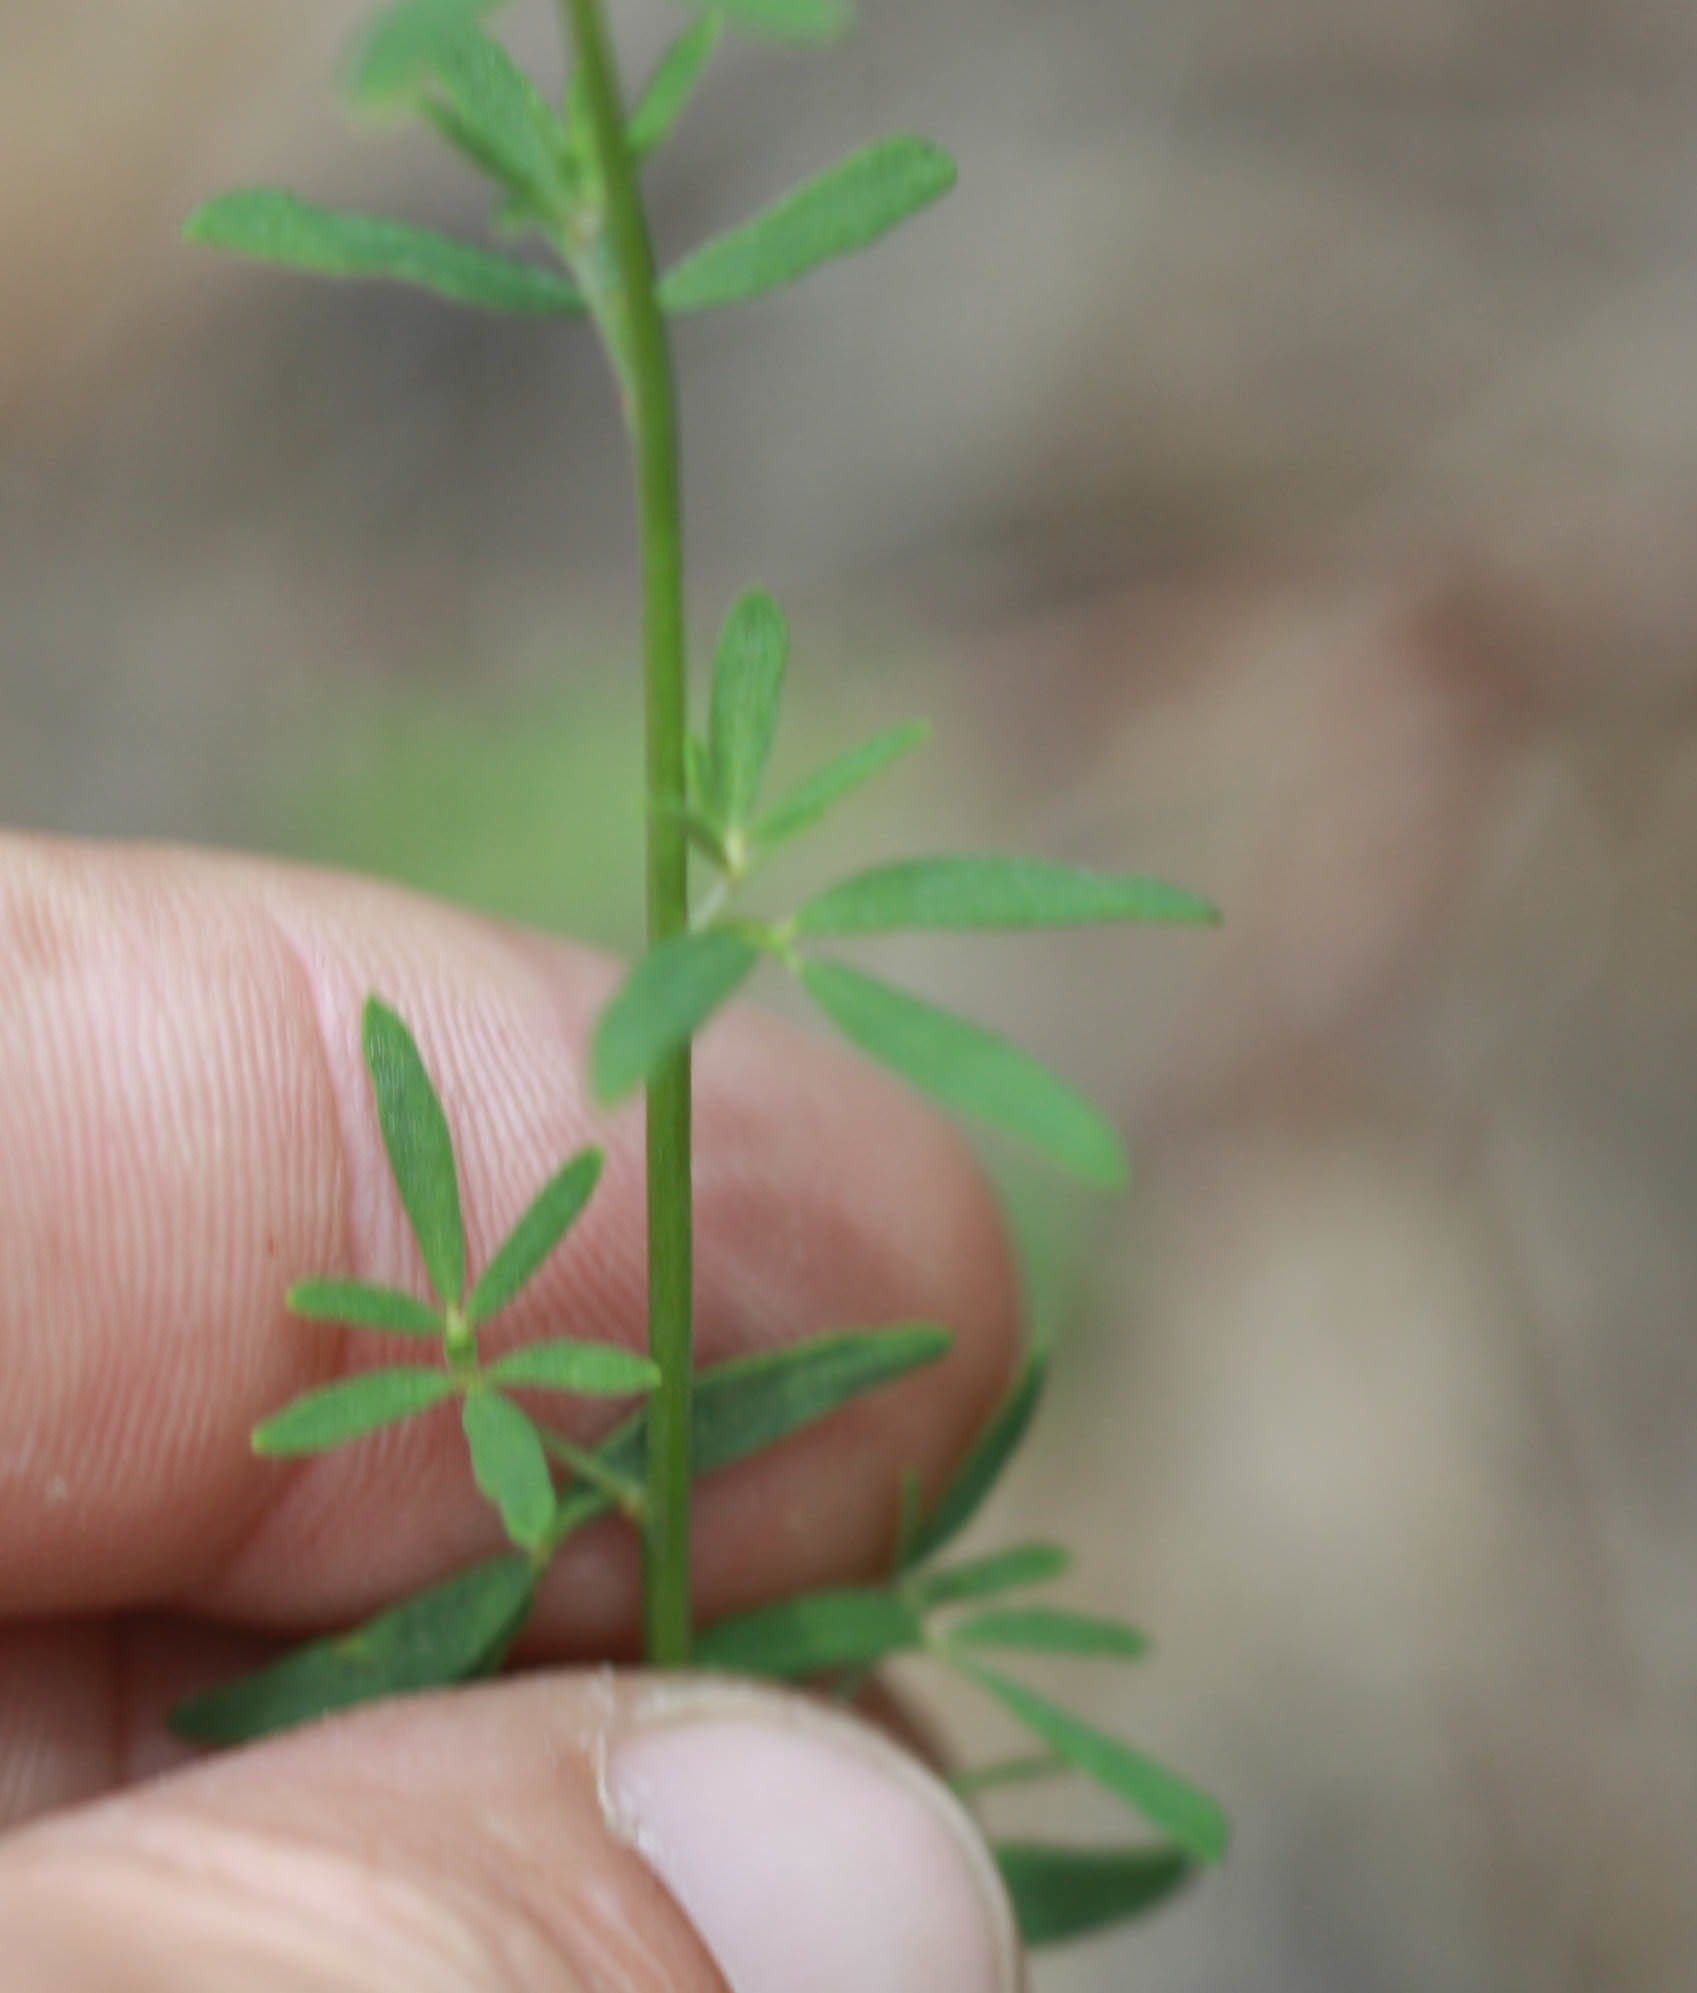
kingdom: Plantae
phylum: Tracheophyta
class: Magnoliopsida
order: Fabales
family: Fabaceae
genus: Acmispon
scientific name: Acmispon glaber
